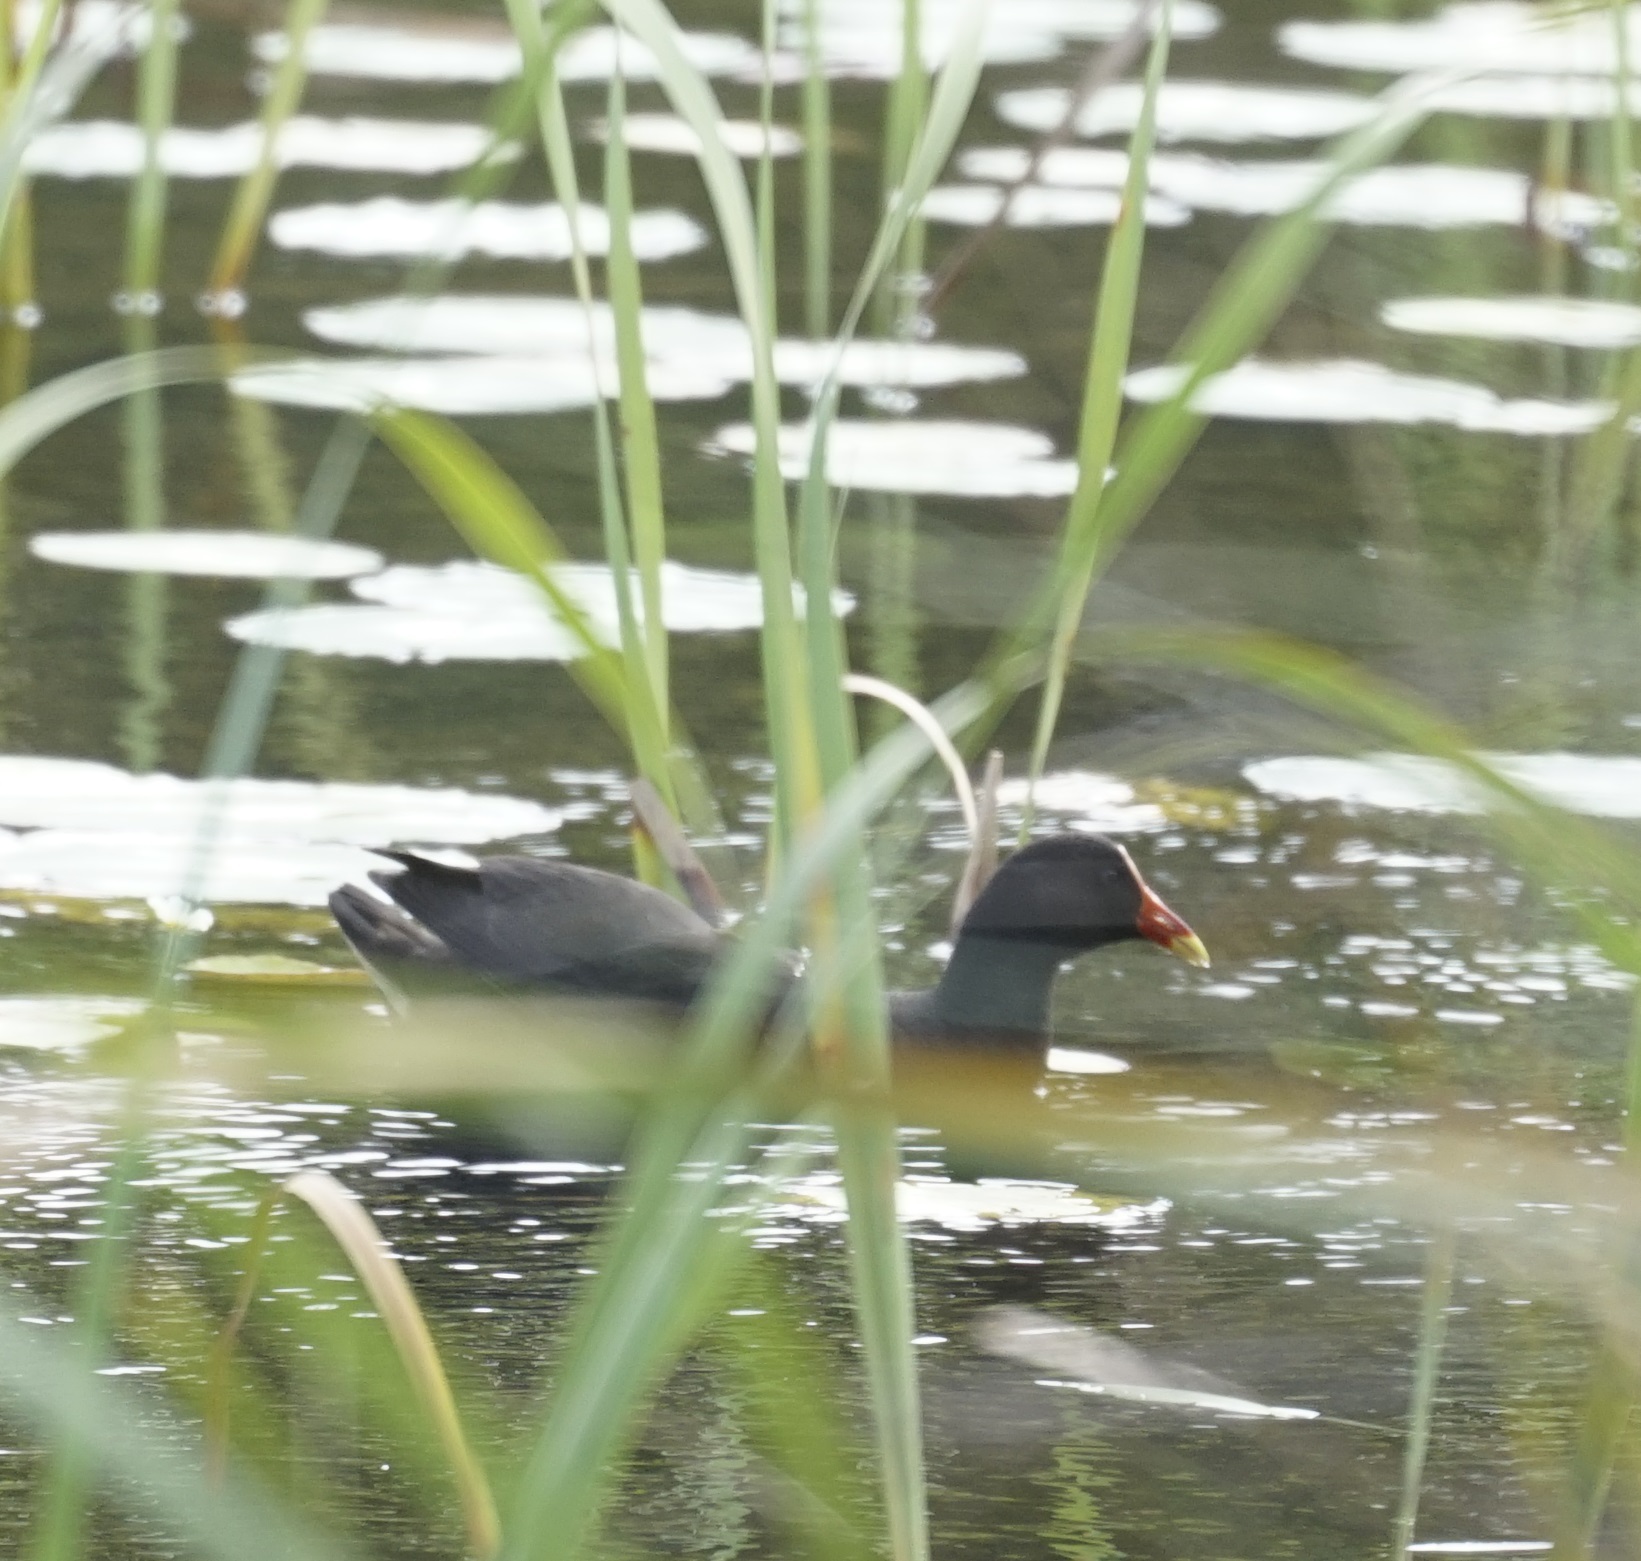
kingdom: Animalia
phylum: Chordata
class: Aves
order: Gruiformes
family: Rallidae
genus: Gallinula
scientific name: Gallinula tenebrosa
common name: Dusky moorhen
